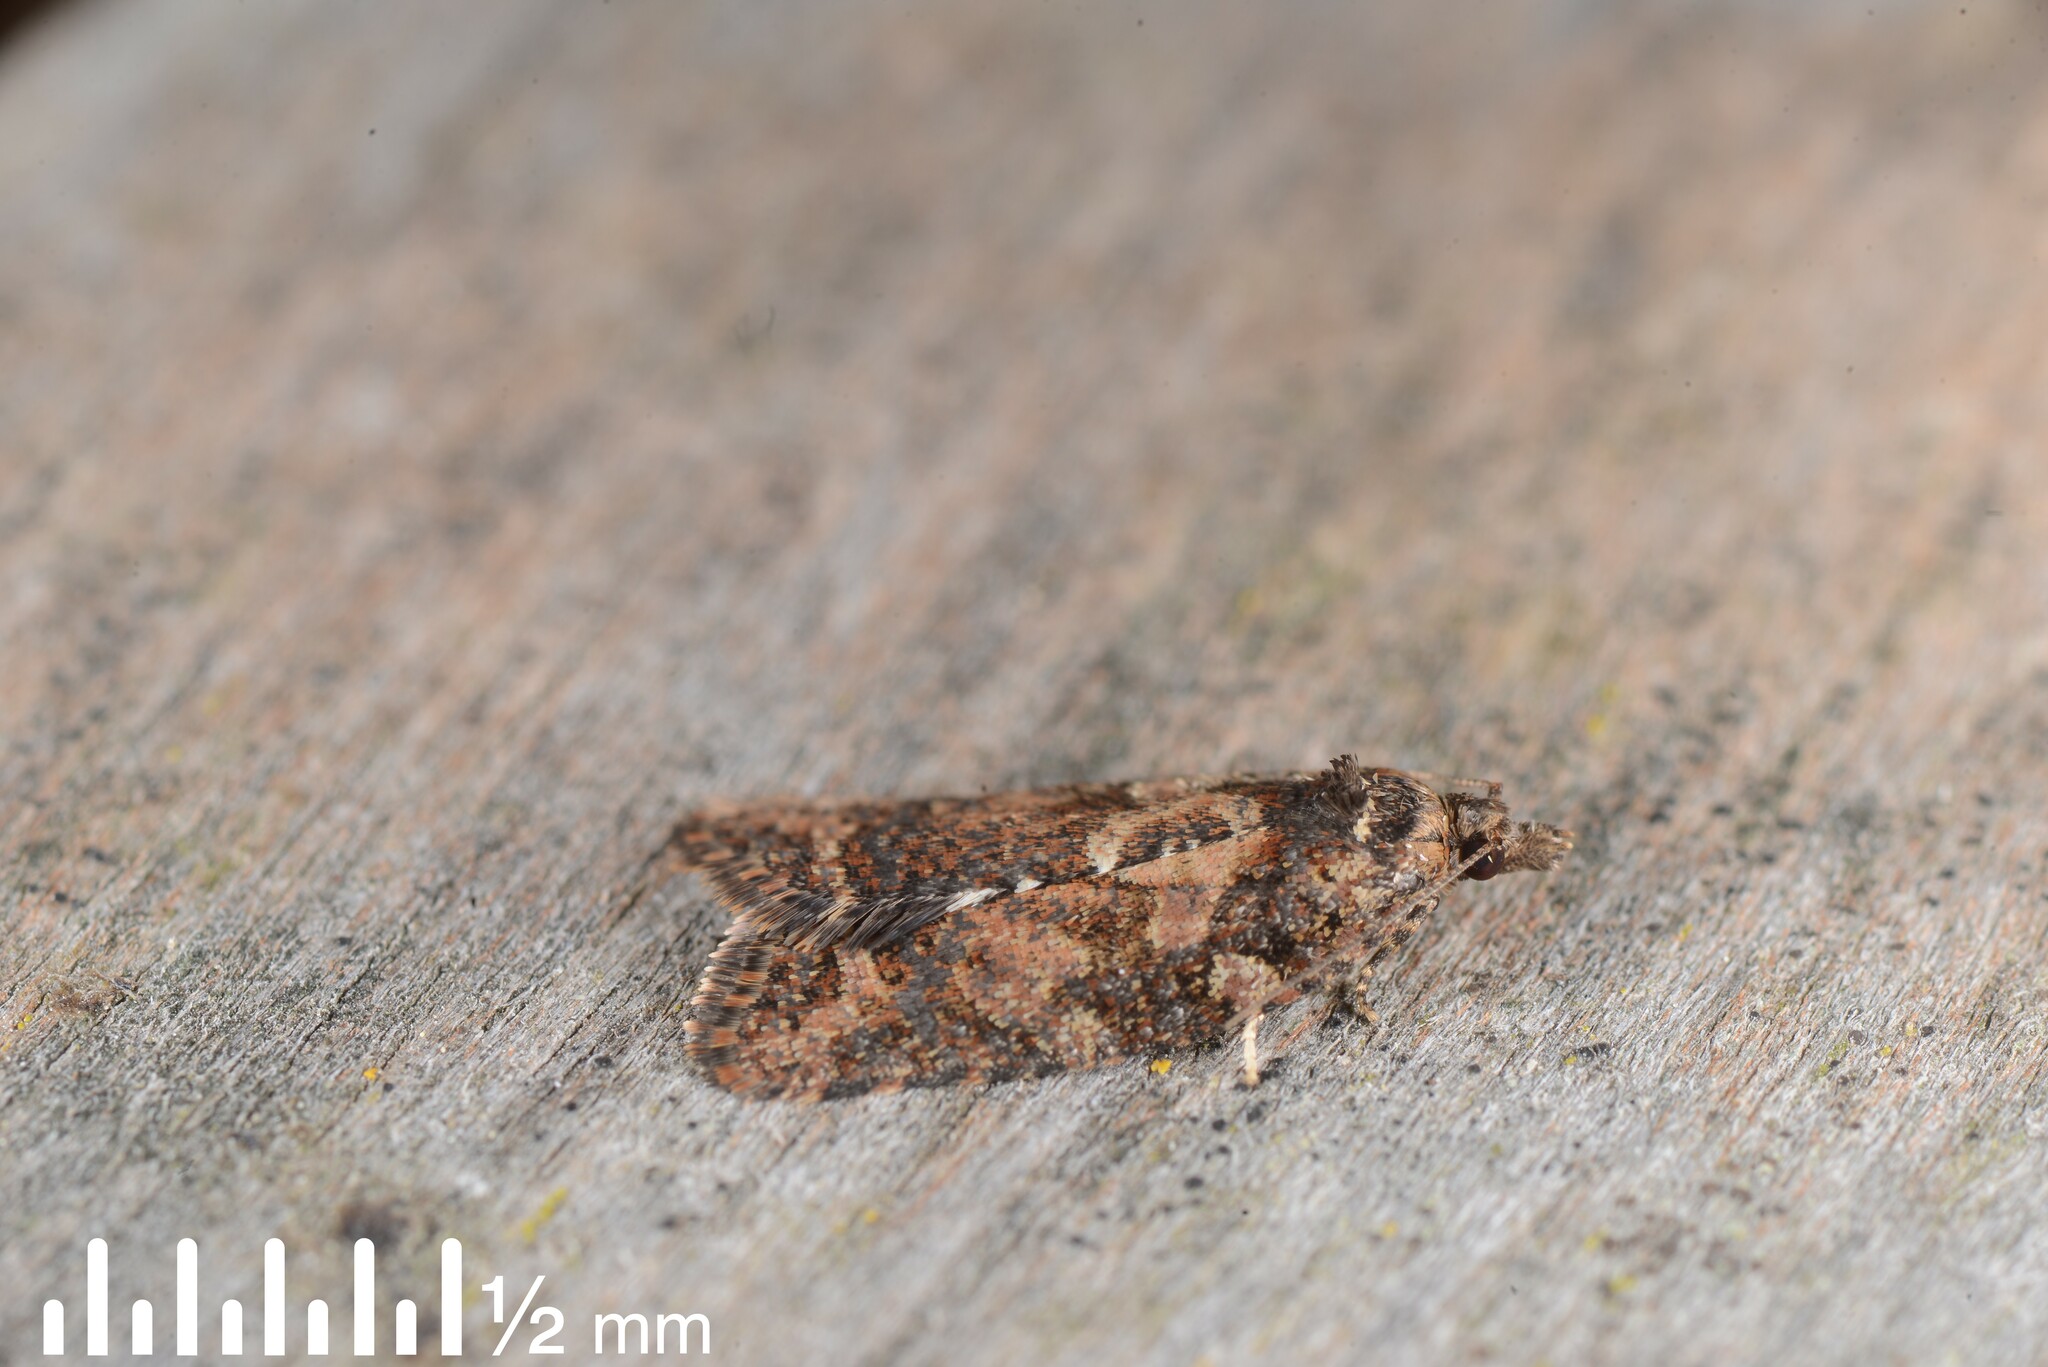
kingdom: Animalia
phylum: Arthropoda
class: Insecta
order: Lepidoptera
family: Tortricidae
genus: Capua
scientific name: Capua intractana
